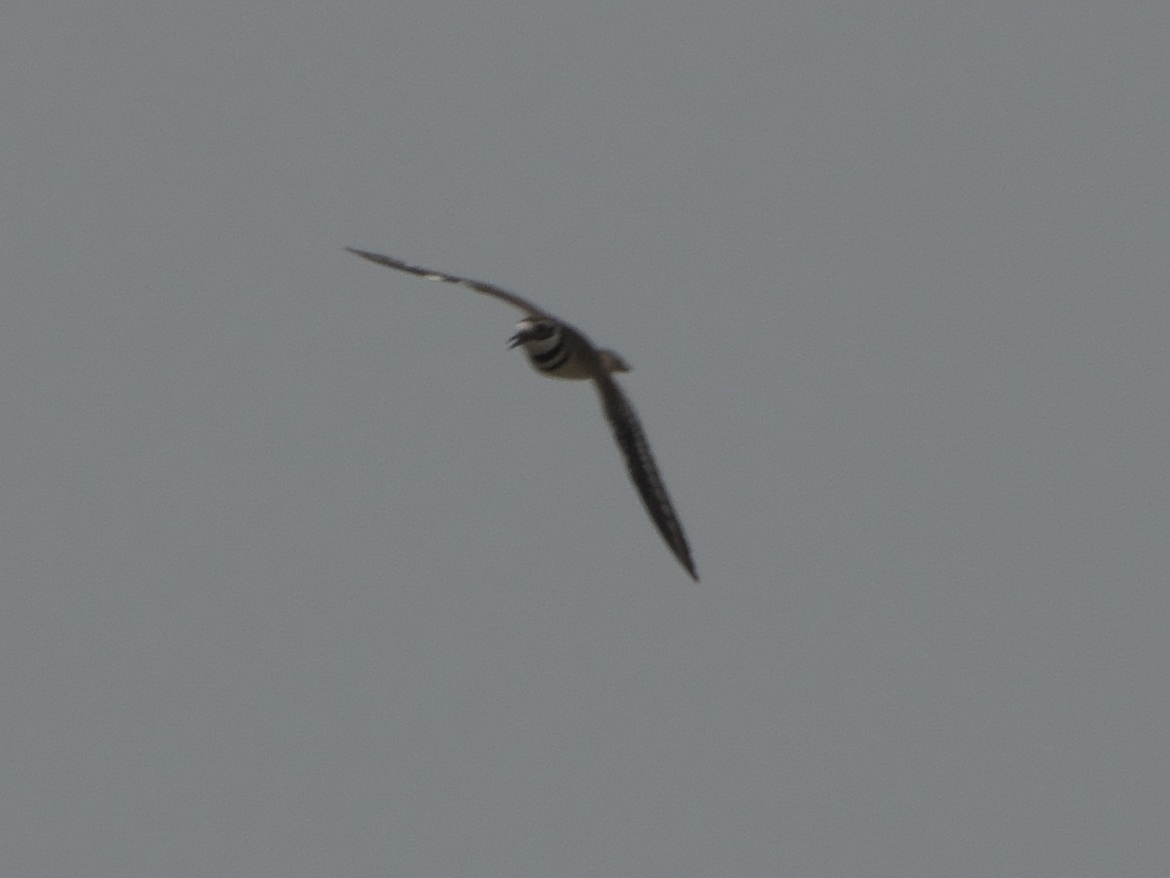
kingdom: Animalia
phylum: Chordata
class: Aves
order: Charadriiformes
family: Charadriidae
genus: Charadrius
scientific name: Charadrius vociferus
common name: Killdeer
